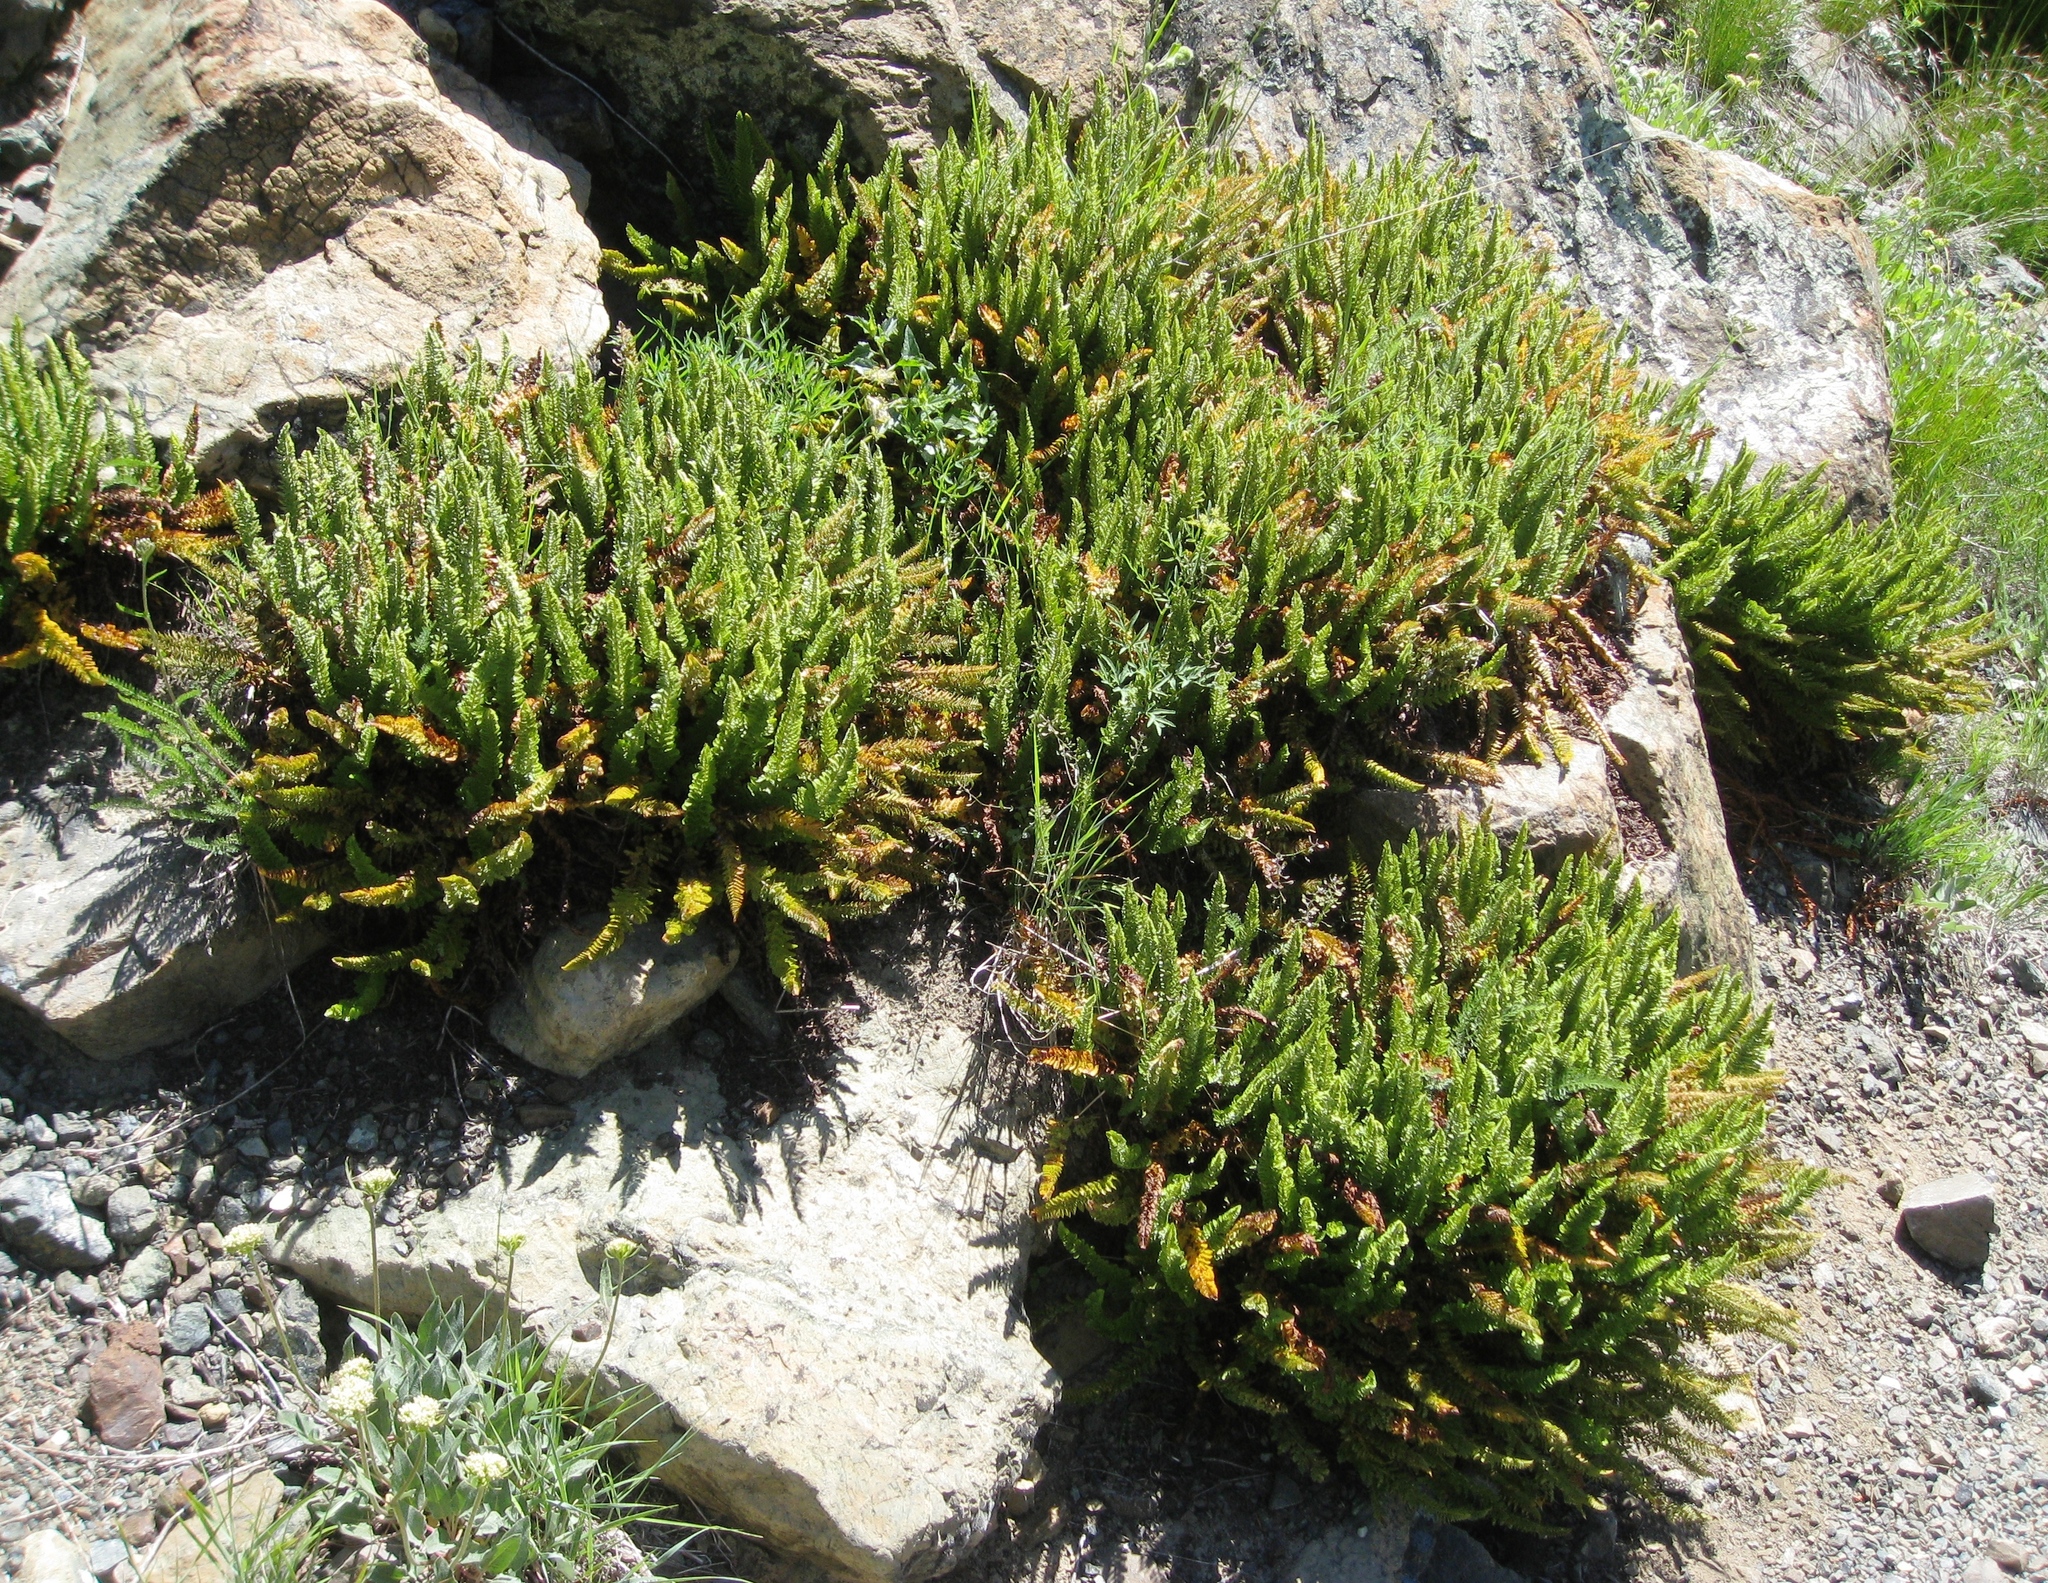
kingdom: Plantae
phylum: Tracheophyta
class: Polypodiopsida
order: Polypodiales
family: Dryopteridaceae
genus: Polystichum
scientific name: Polystichum lemmonii
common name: Lemmon's holly fern
